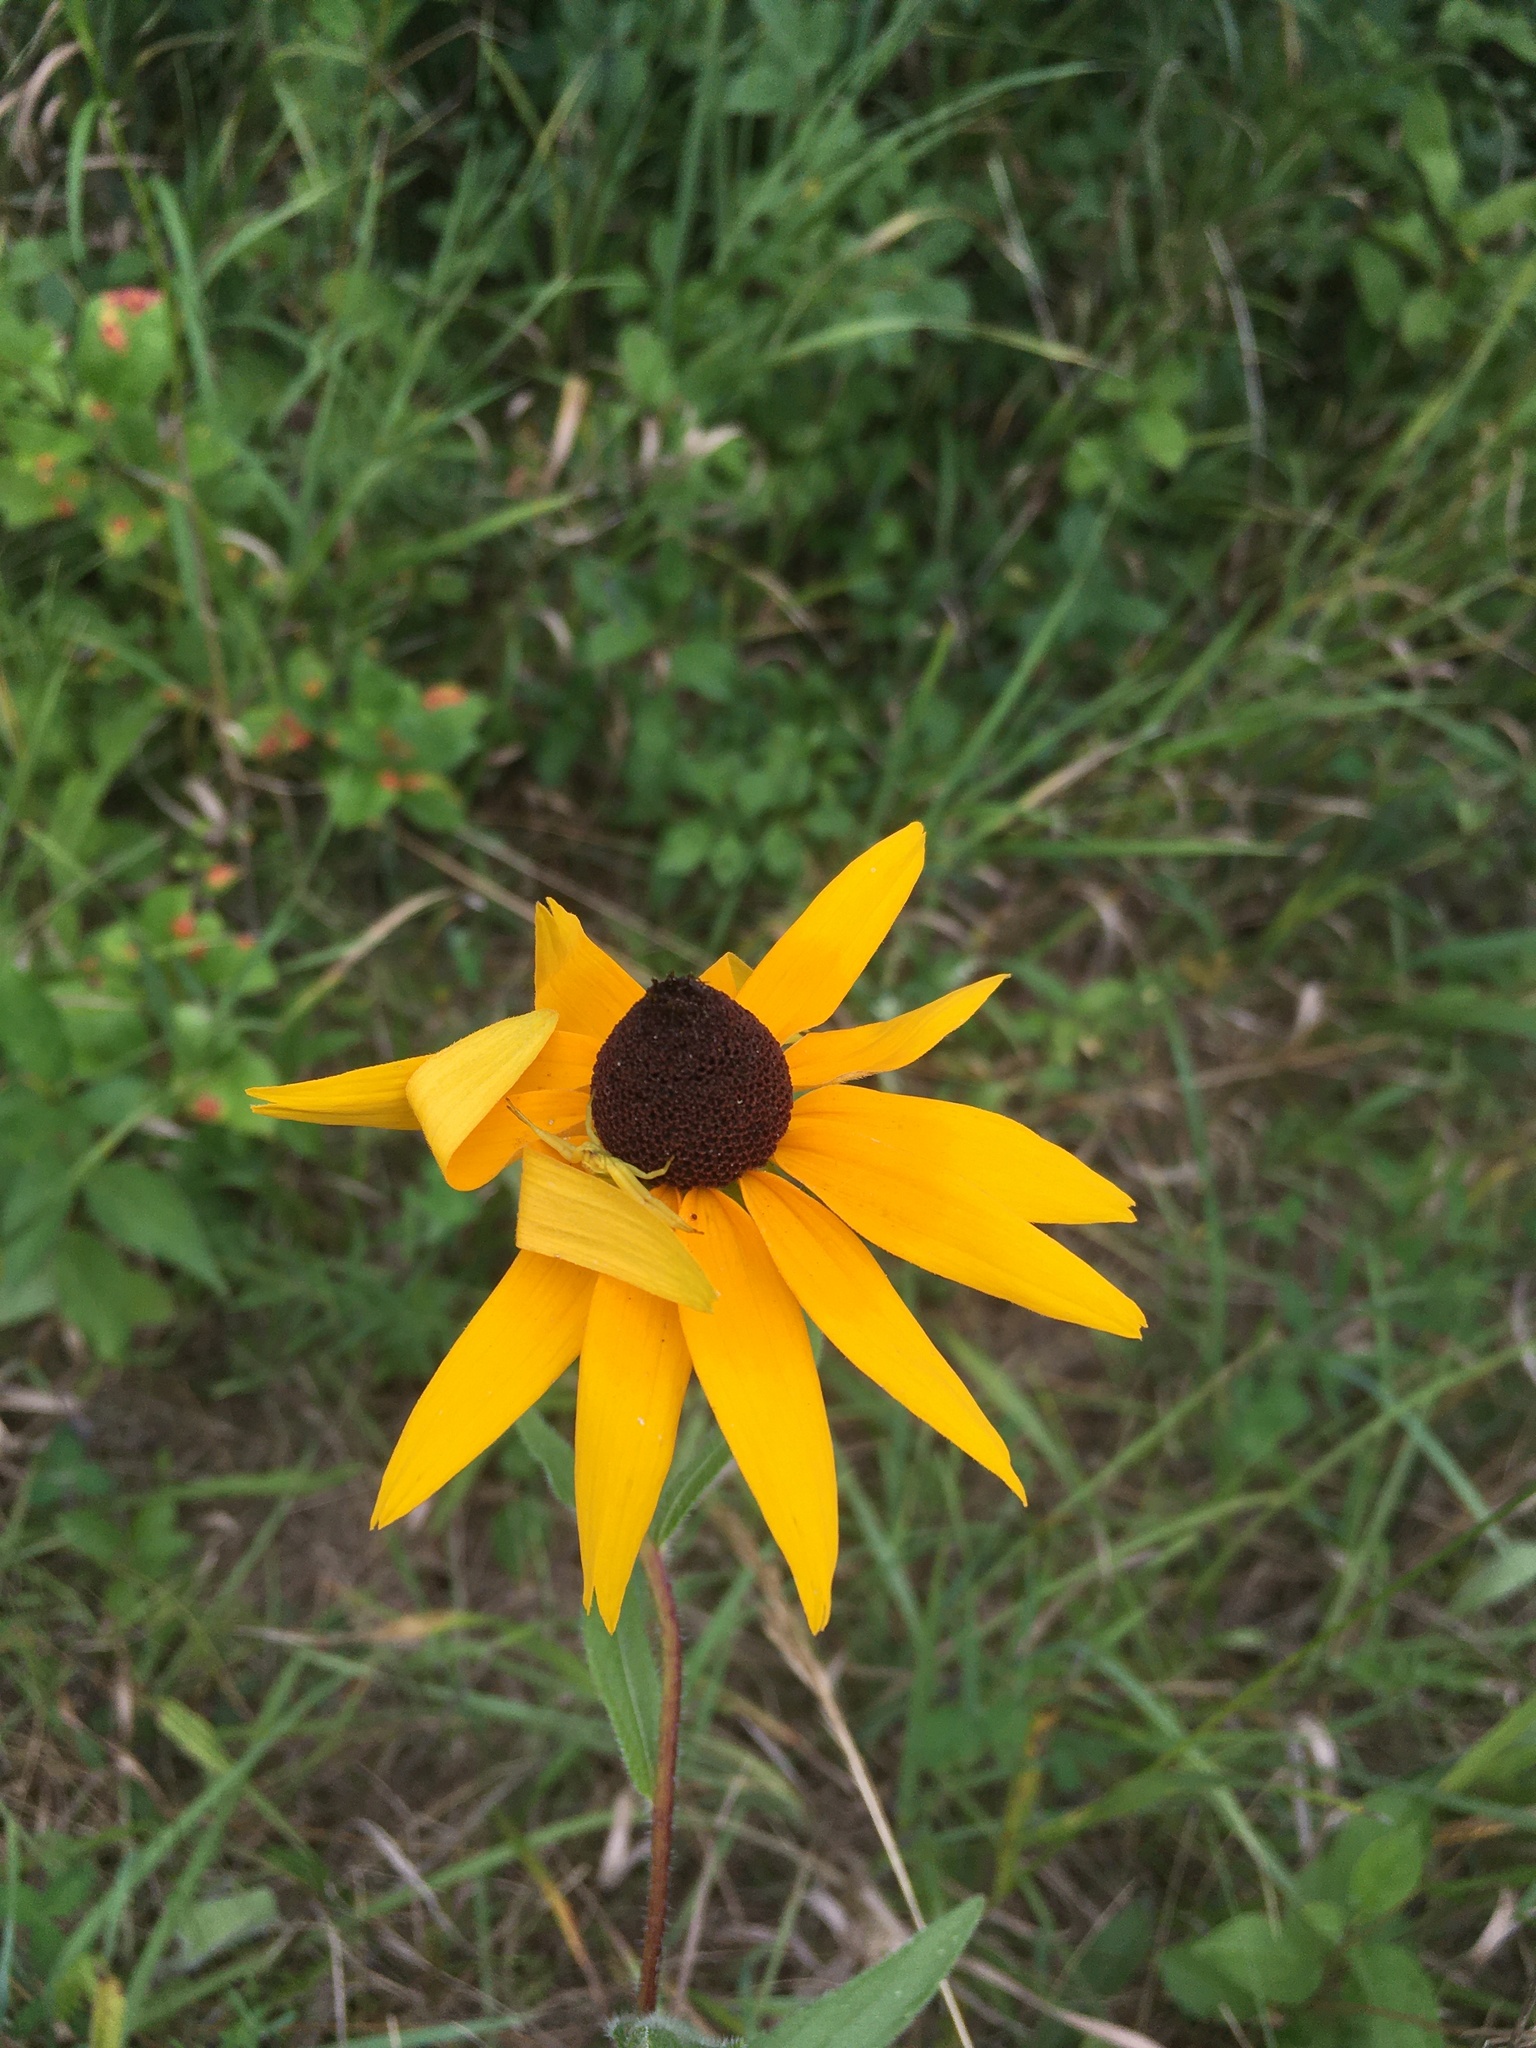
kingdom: Plantae
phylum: Tracheophyta
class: Magnoliopsida
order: Asterales
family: Asteraceae
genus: Rudbeckia
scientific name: Rudbeckia hirta
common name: Black-eyed-susan
